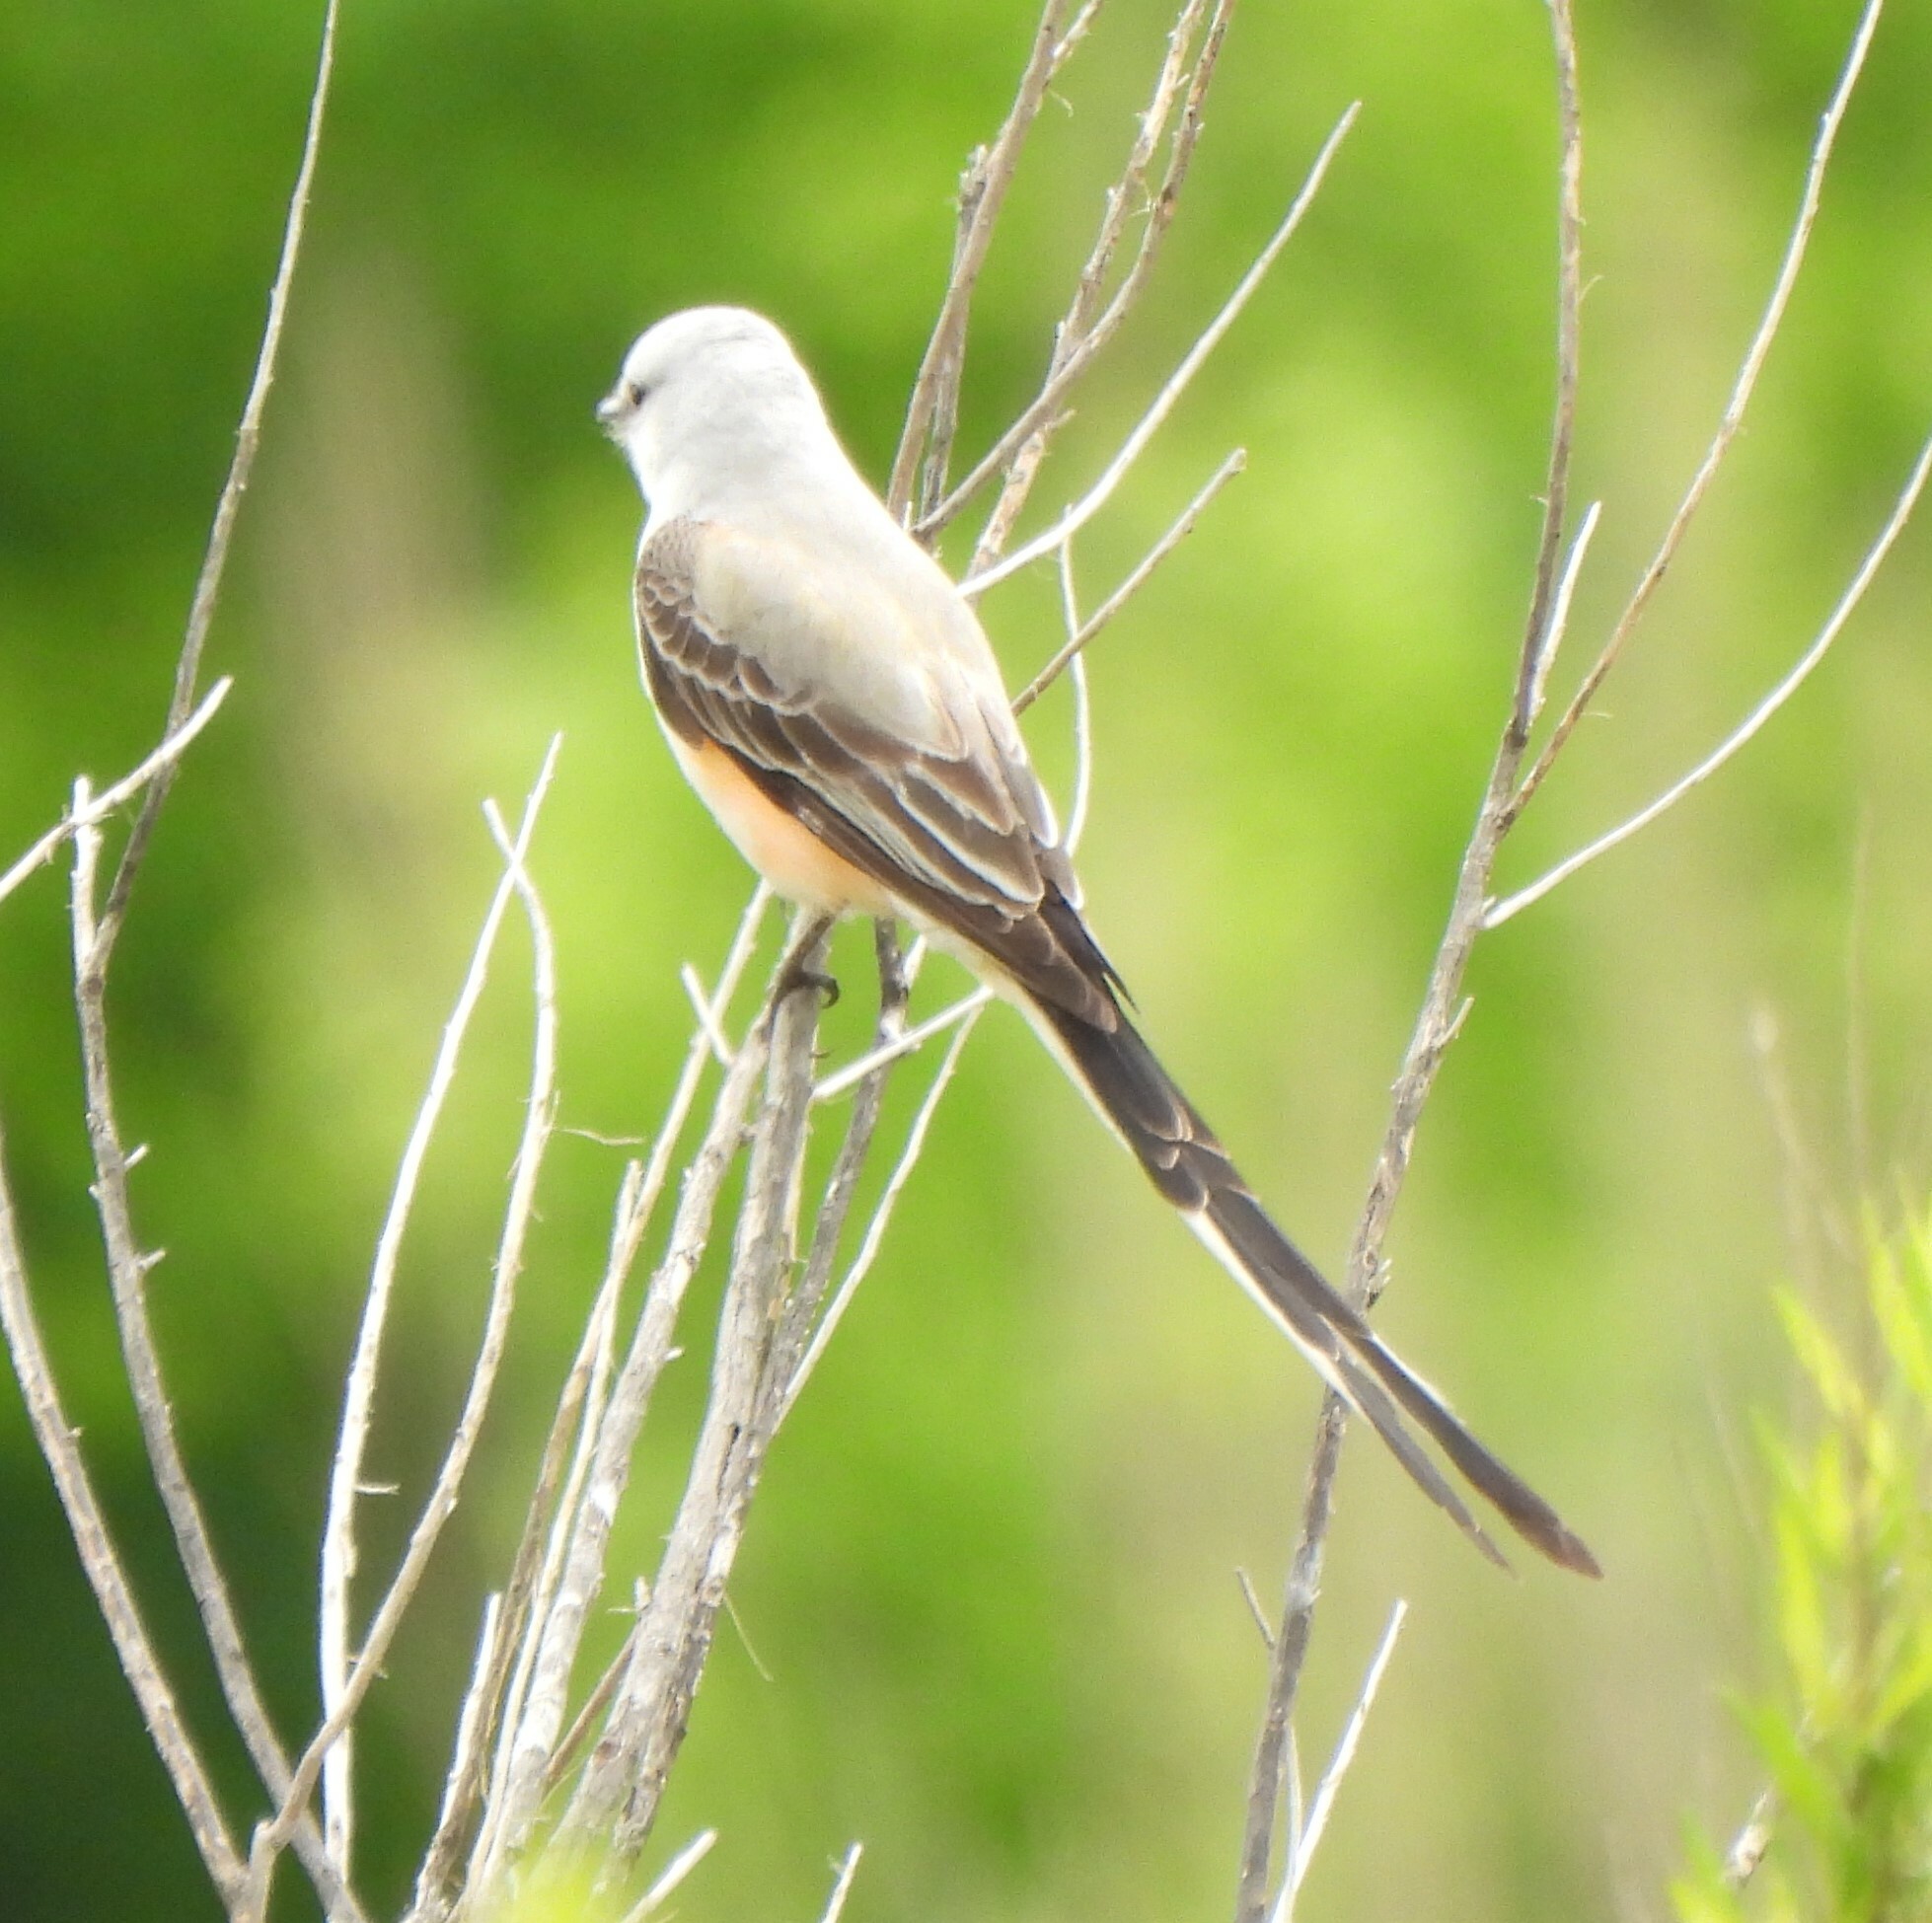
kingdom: Animalia
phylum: Chordata
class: Aves
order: Passeriformes
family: Tyrannidae
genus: Tyrannus
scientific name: Tyrannus forficatus
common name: Scissor-tailed flycatcher
